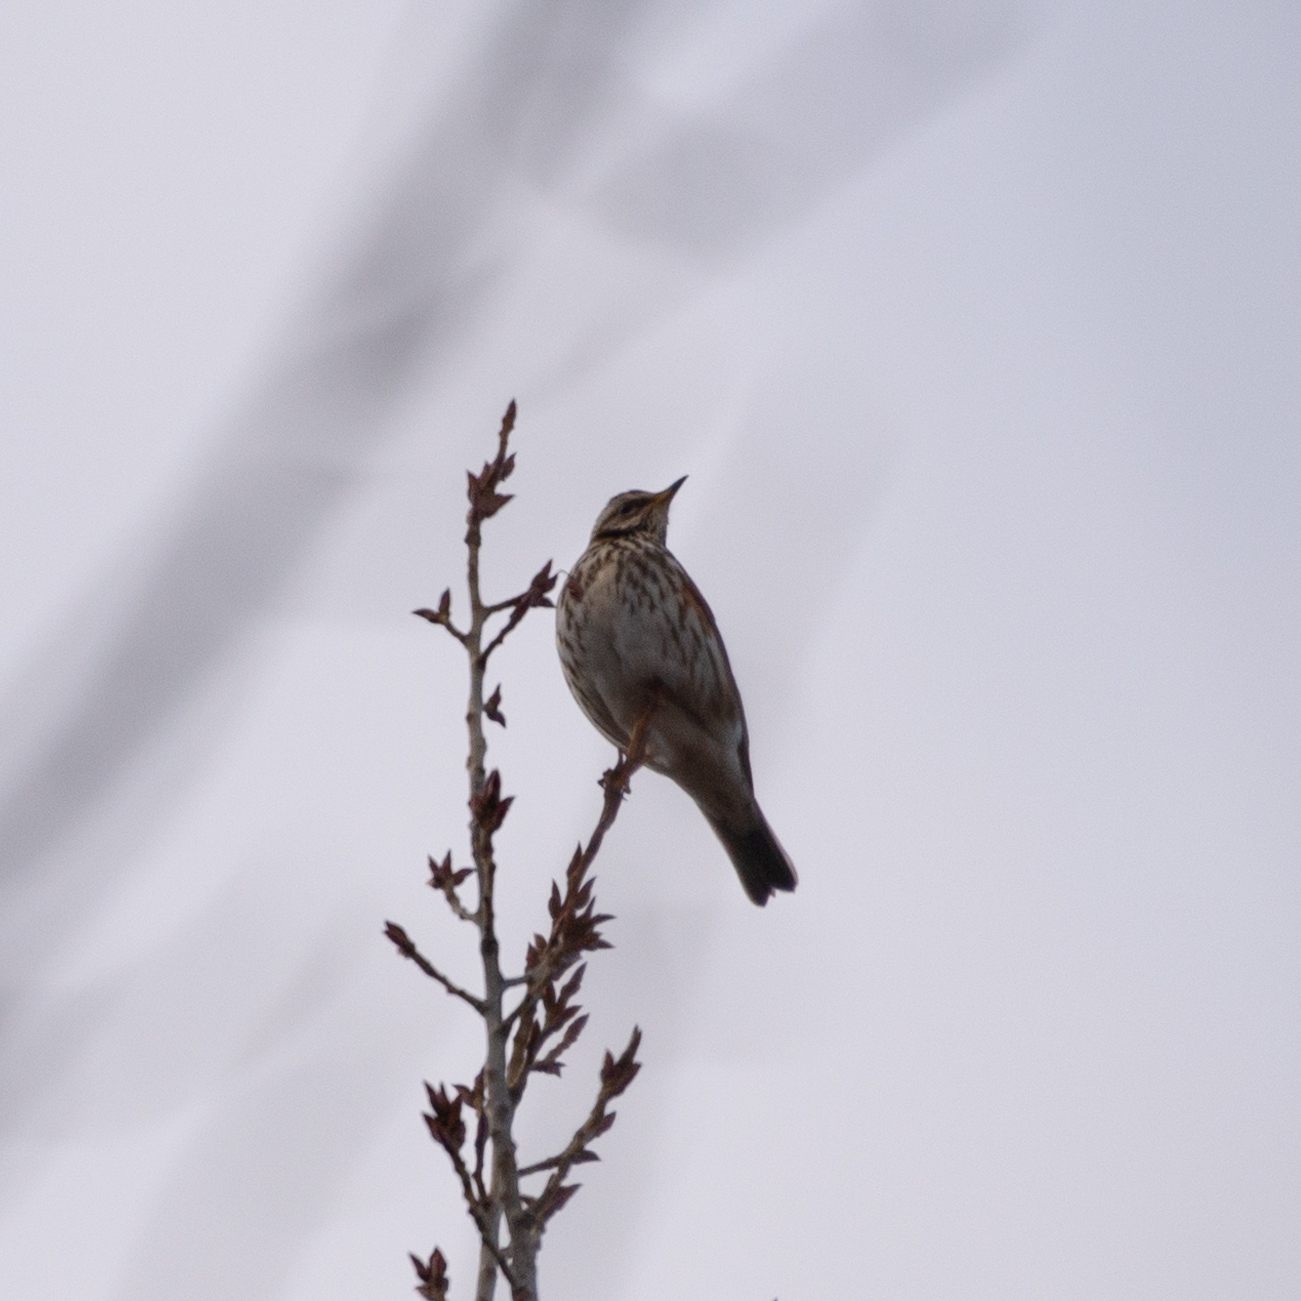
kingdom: Animalia
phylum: Chordata
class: Aves
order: Passeriformes
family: Turdidae
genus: Turdus
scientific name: Turdus iliacus
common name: Redwing
